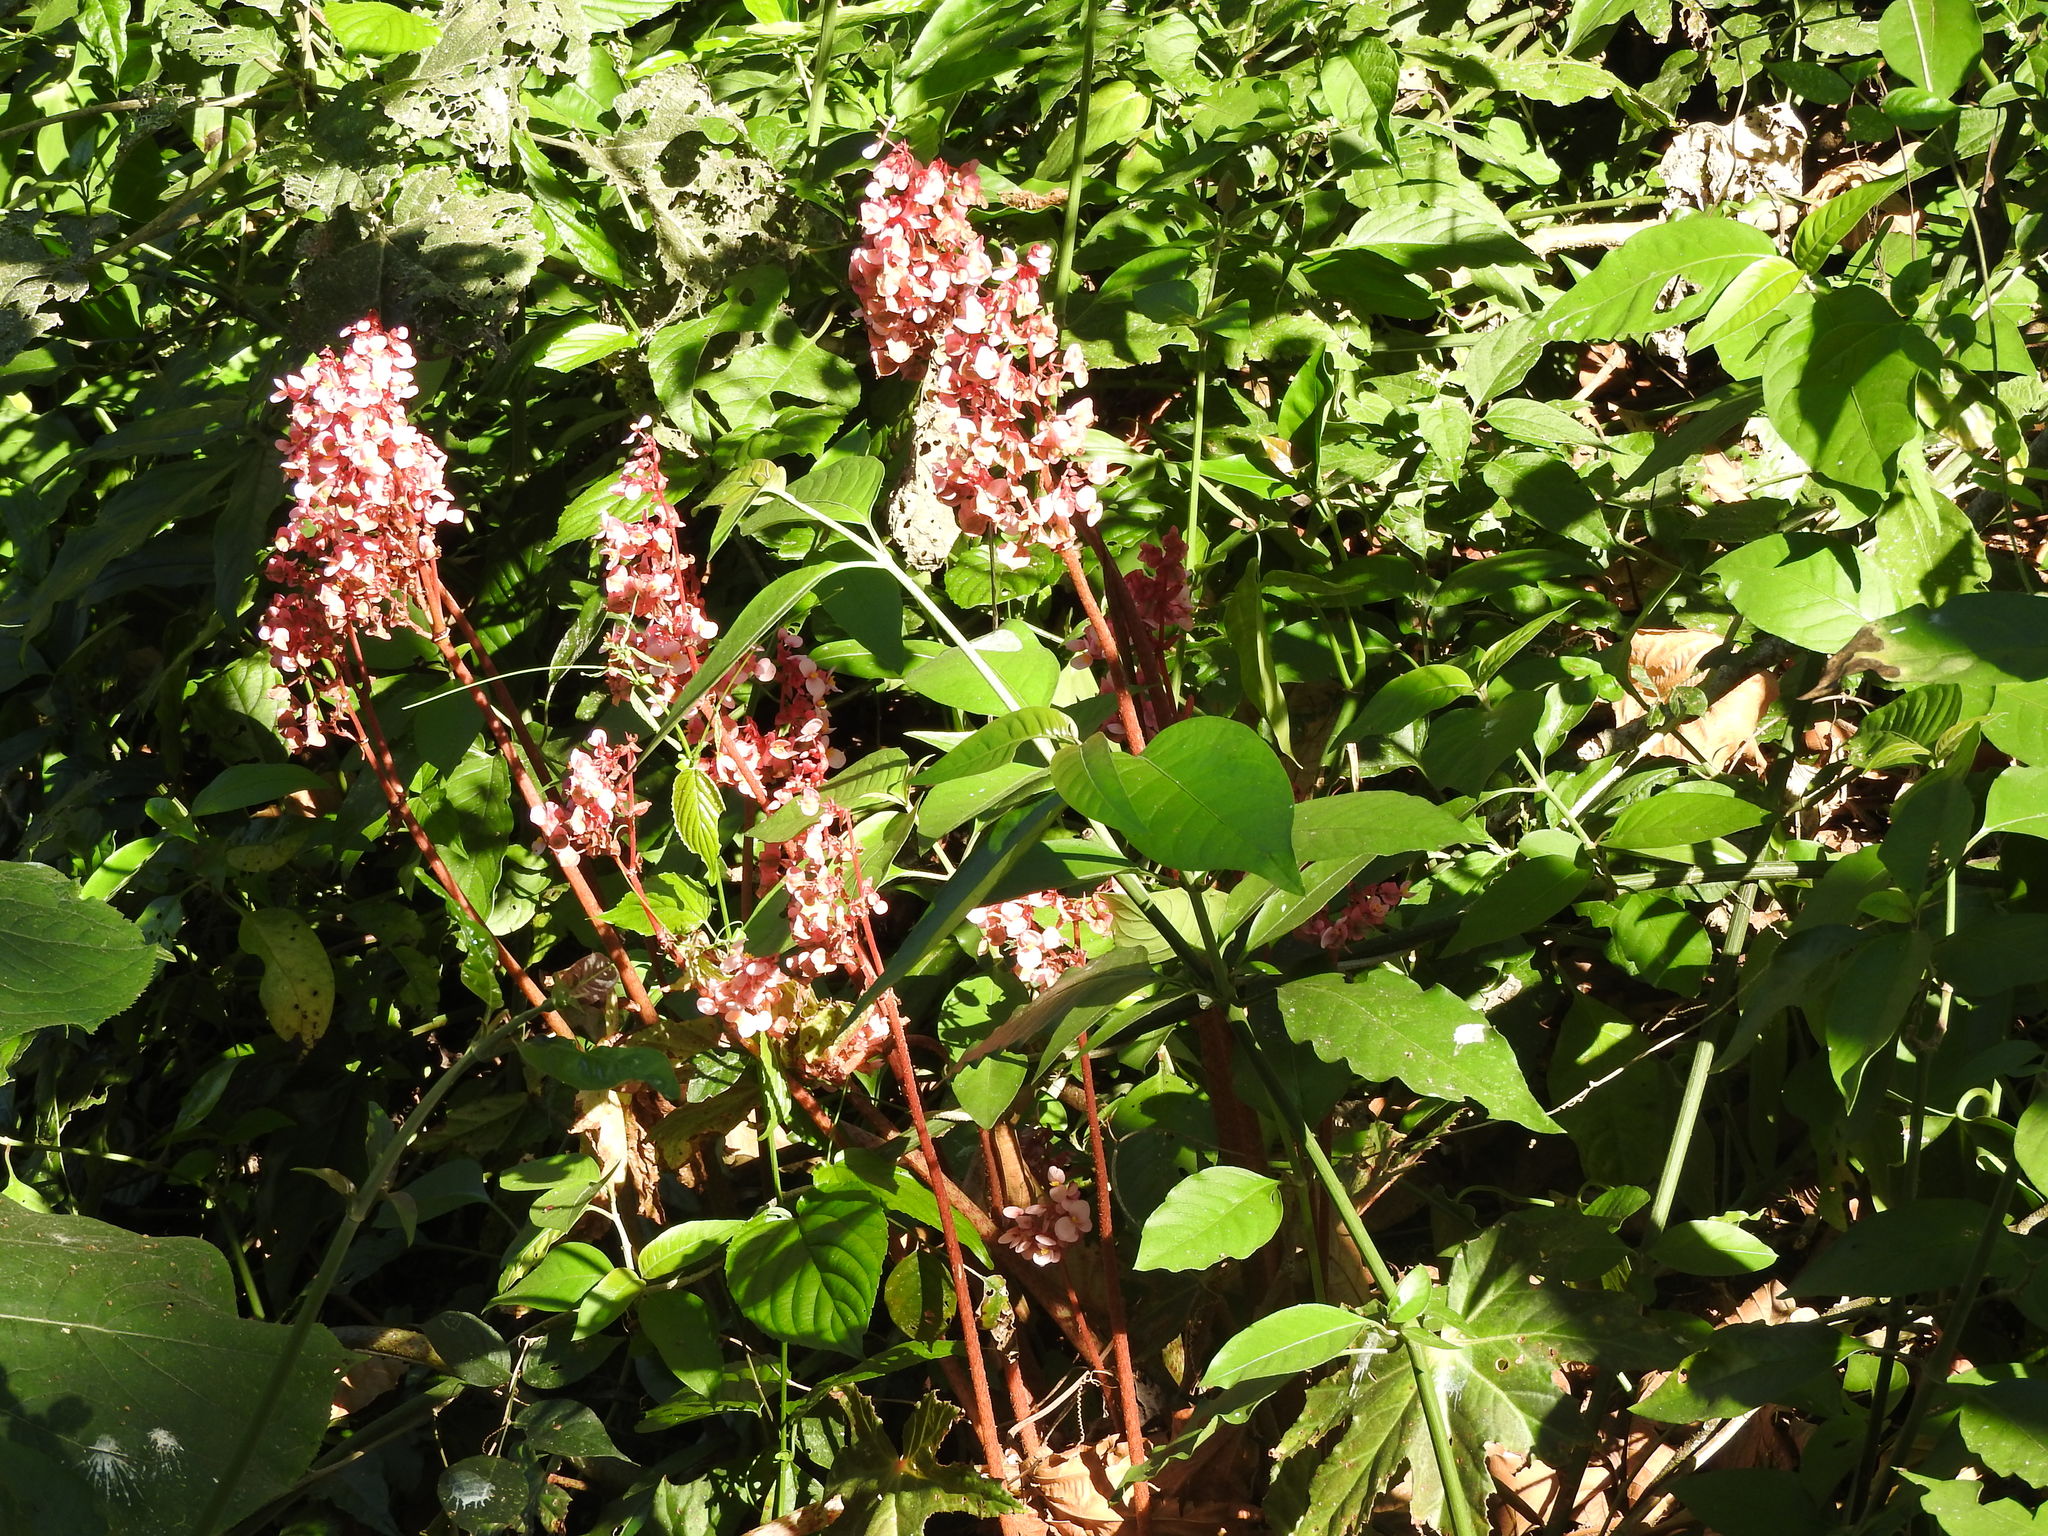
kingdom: Plantae
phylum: Tracheophyta
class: Magnoliopsida
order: Cucurbitales
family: Begoniaceae
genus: Begonia
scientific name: Begonia heracleifolia
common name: Star begonia
